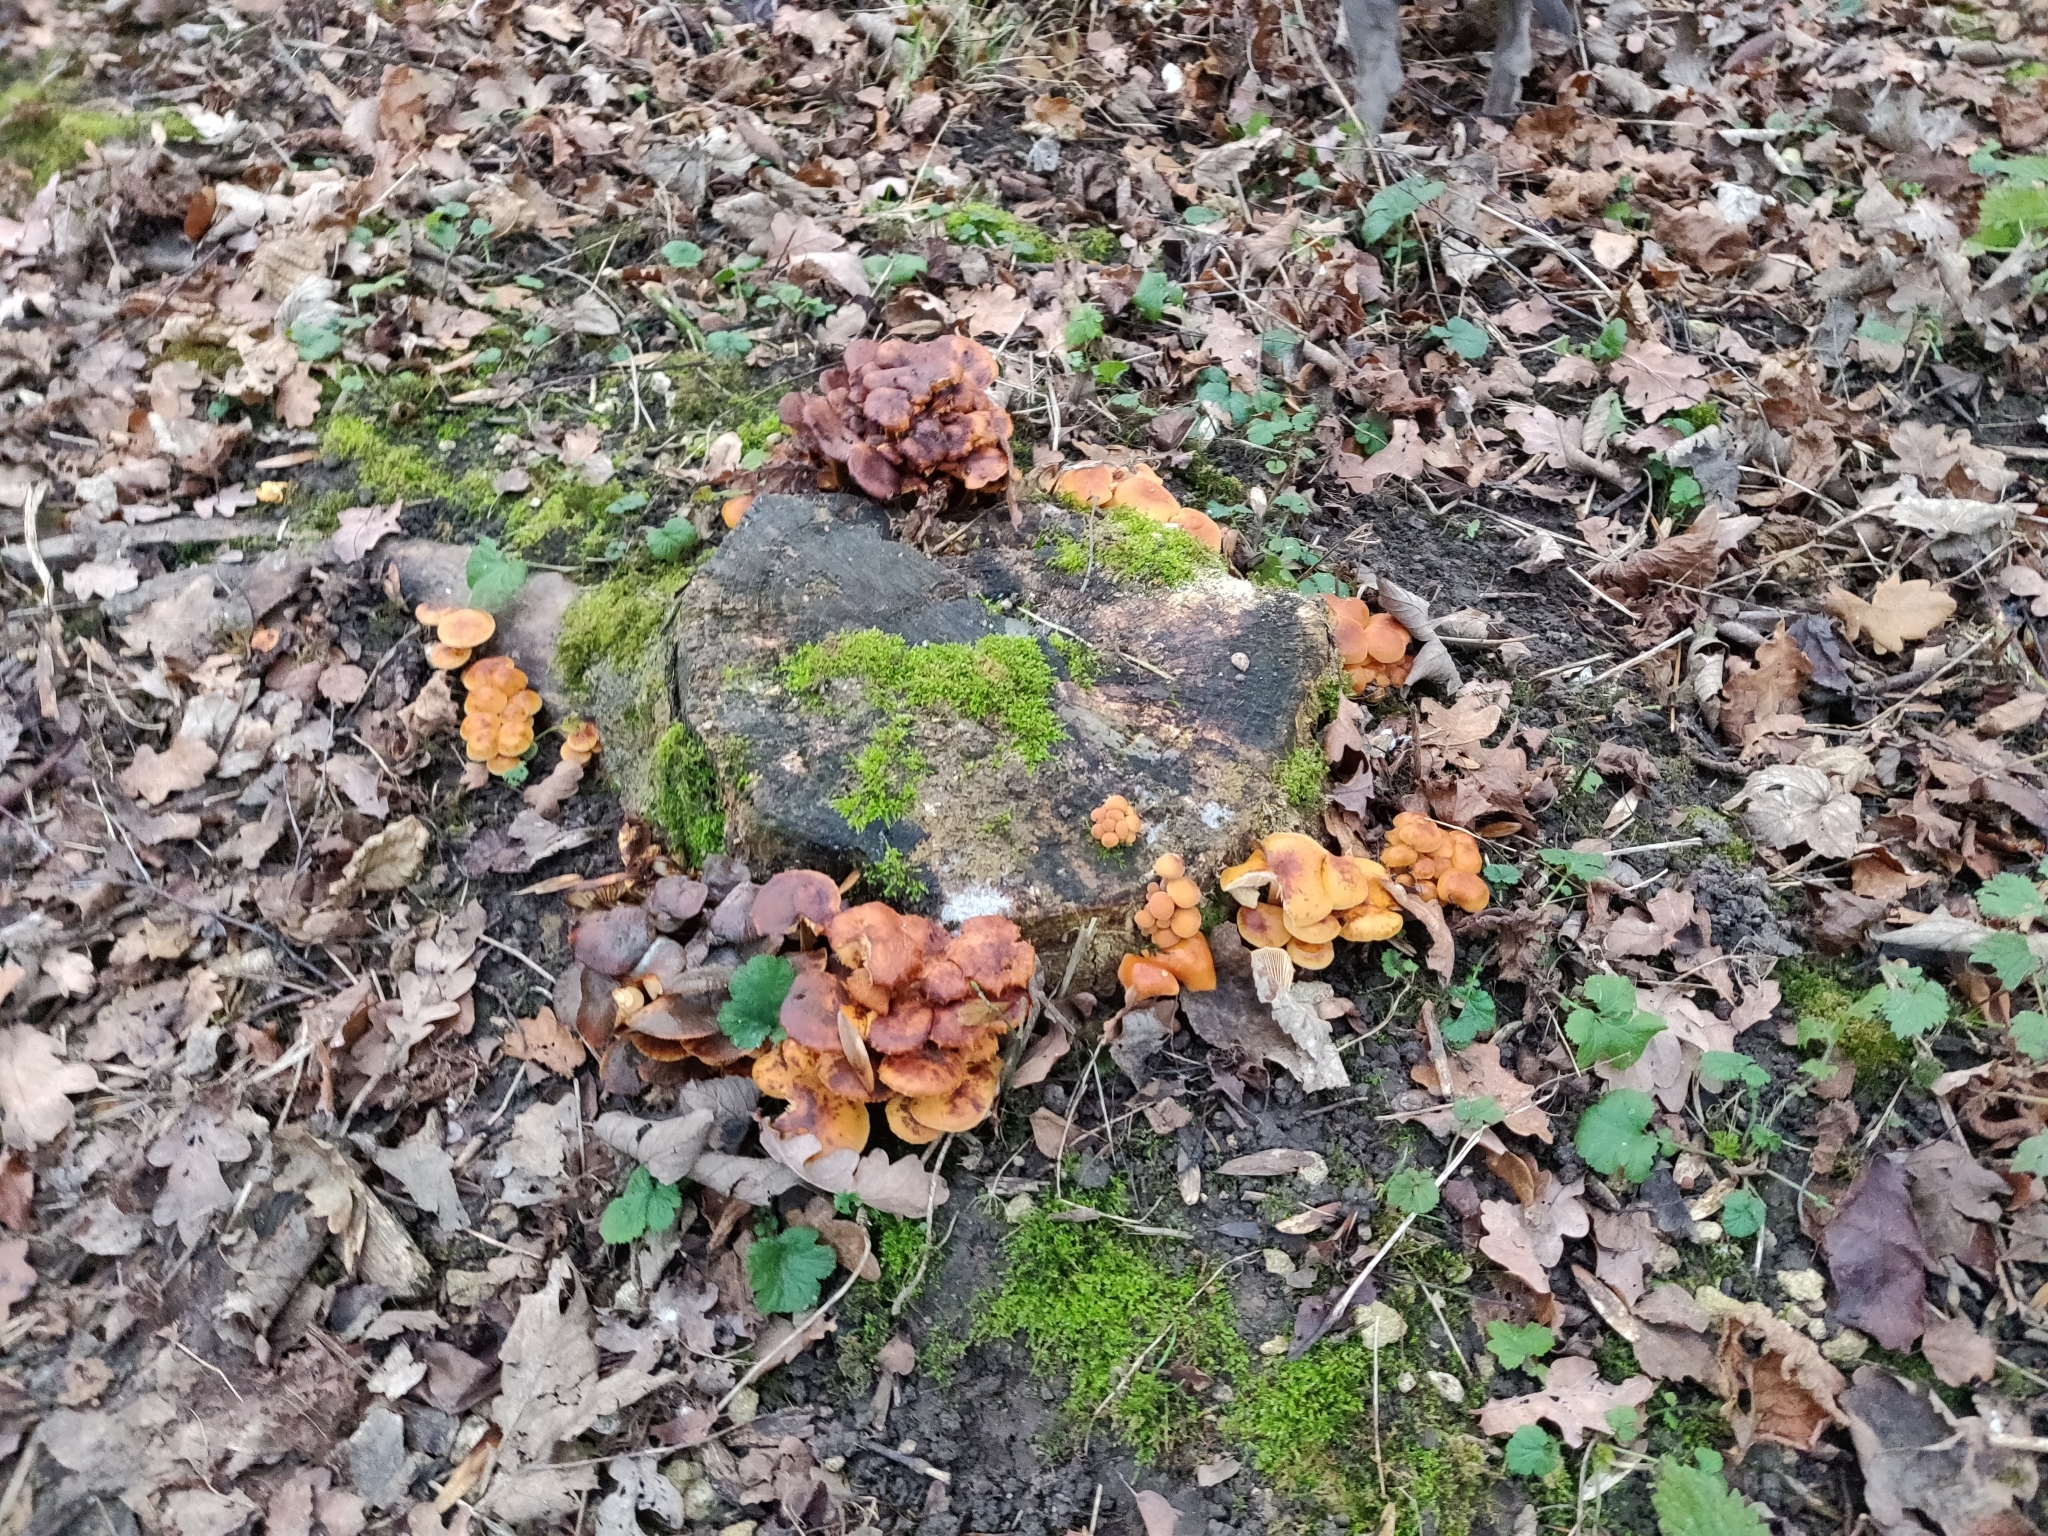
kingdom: Fungi
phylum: Basidiomycota
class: Agaricomycetes
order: Agaricales
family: Physalacriaceae
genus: Flammulina
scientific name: Flammulina
